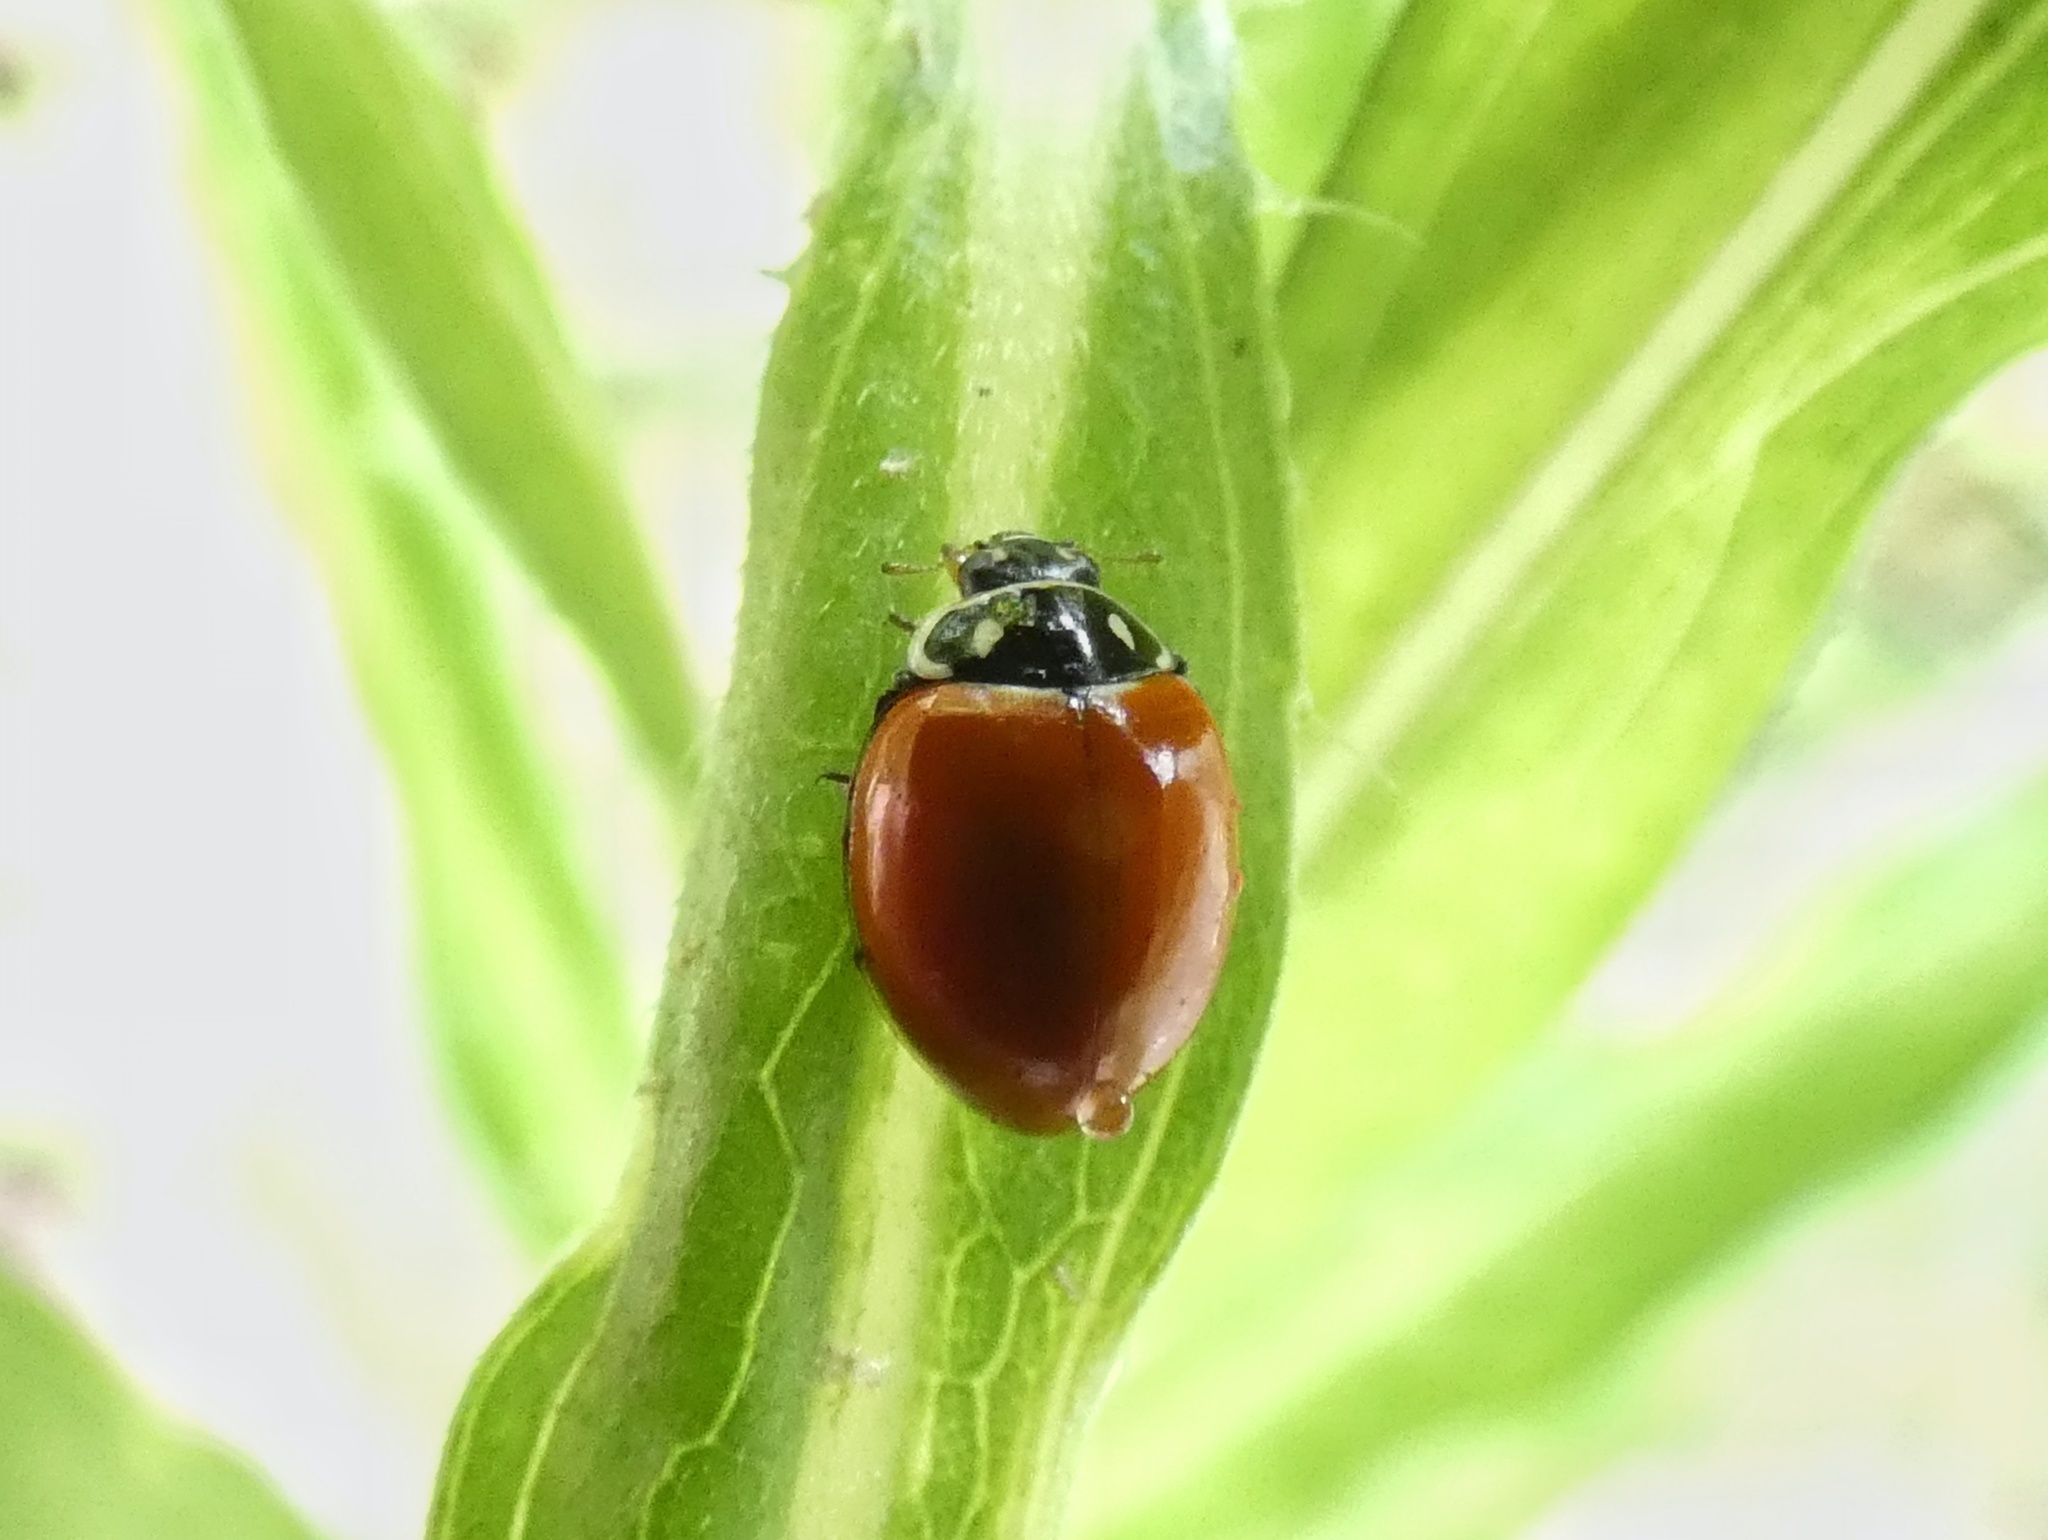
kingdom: Animalia
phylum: Arthropoda
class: Insecta
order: Coleoptera
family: Coccinellidae
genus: Cycloneda
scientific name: Cycloneda emarginata
